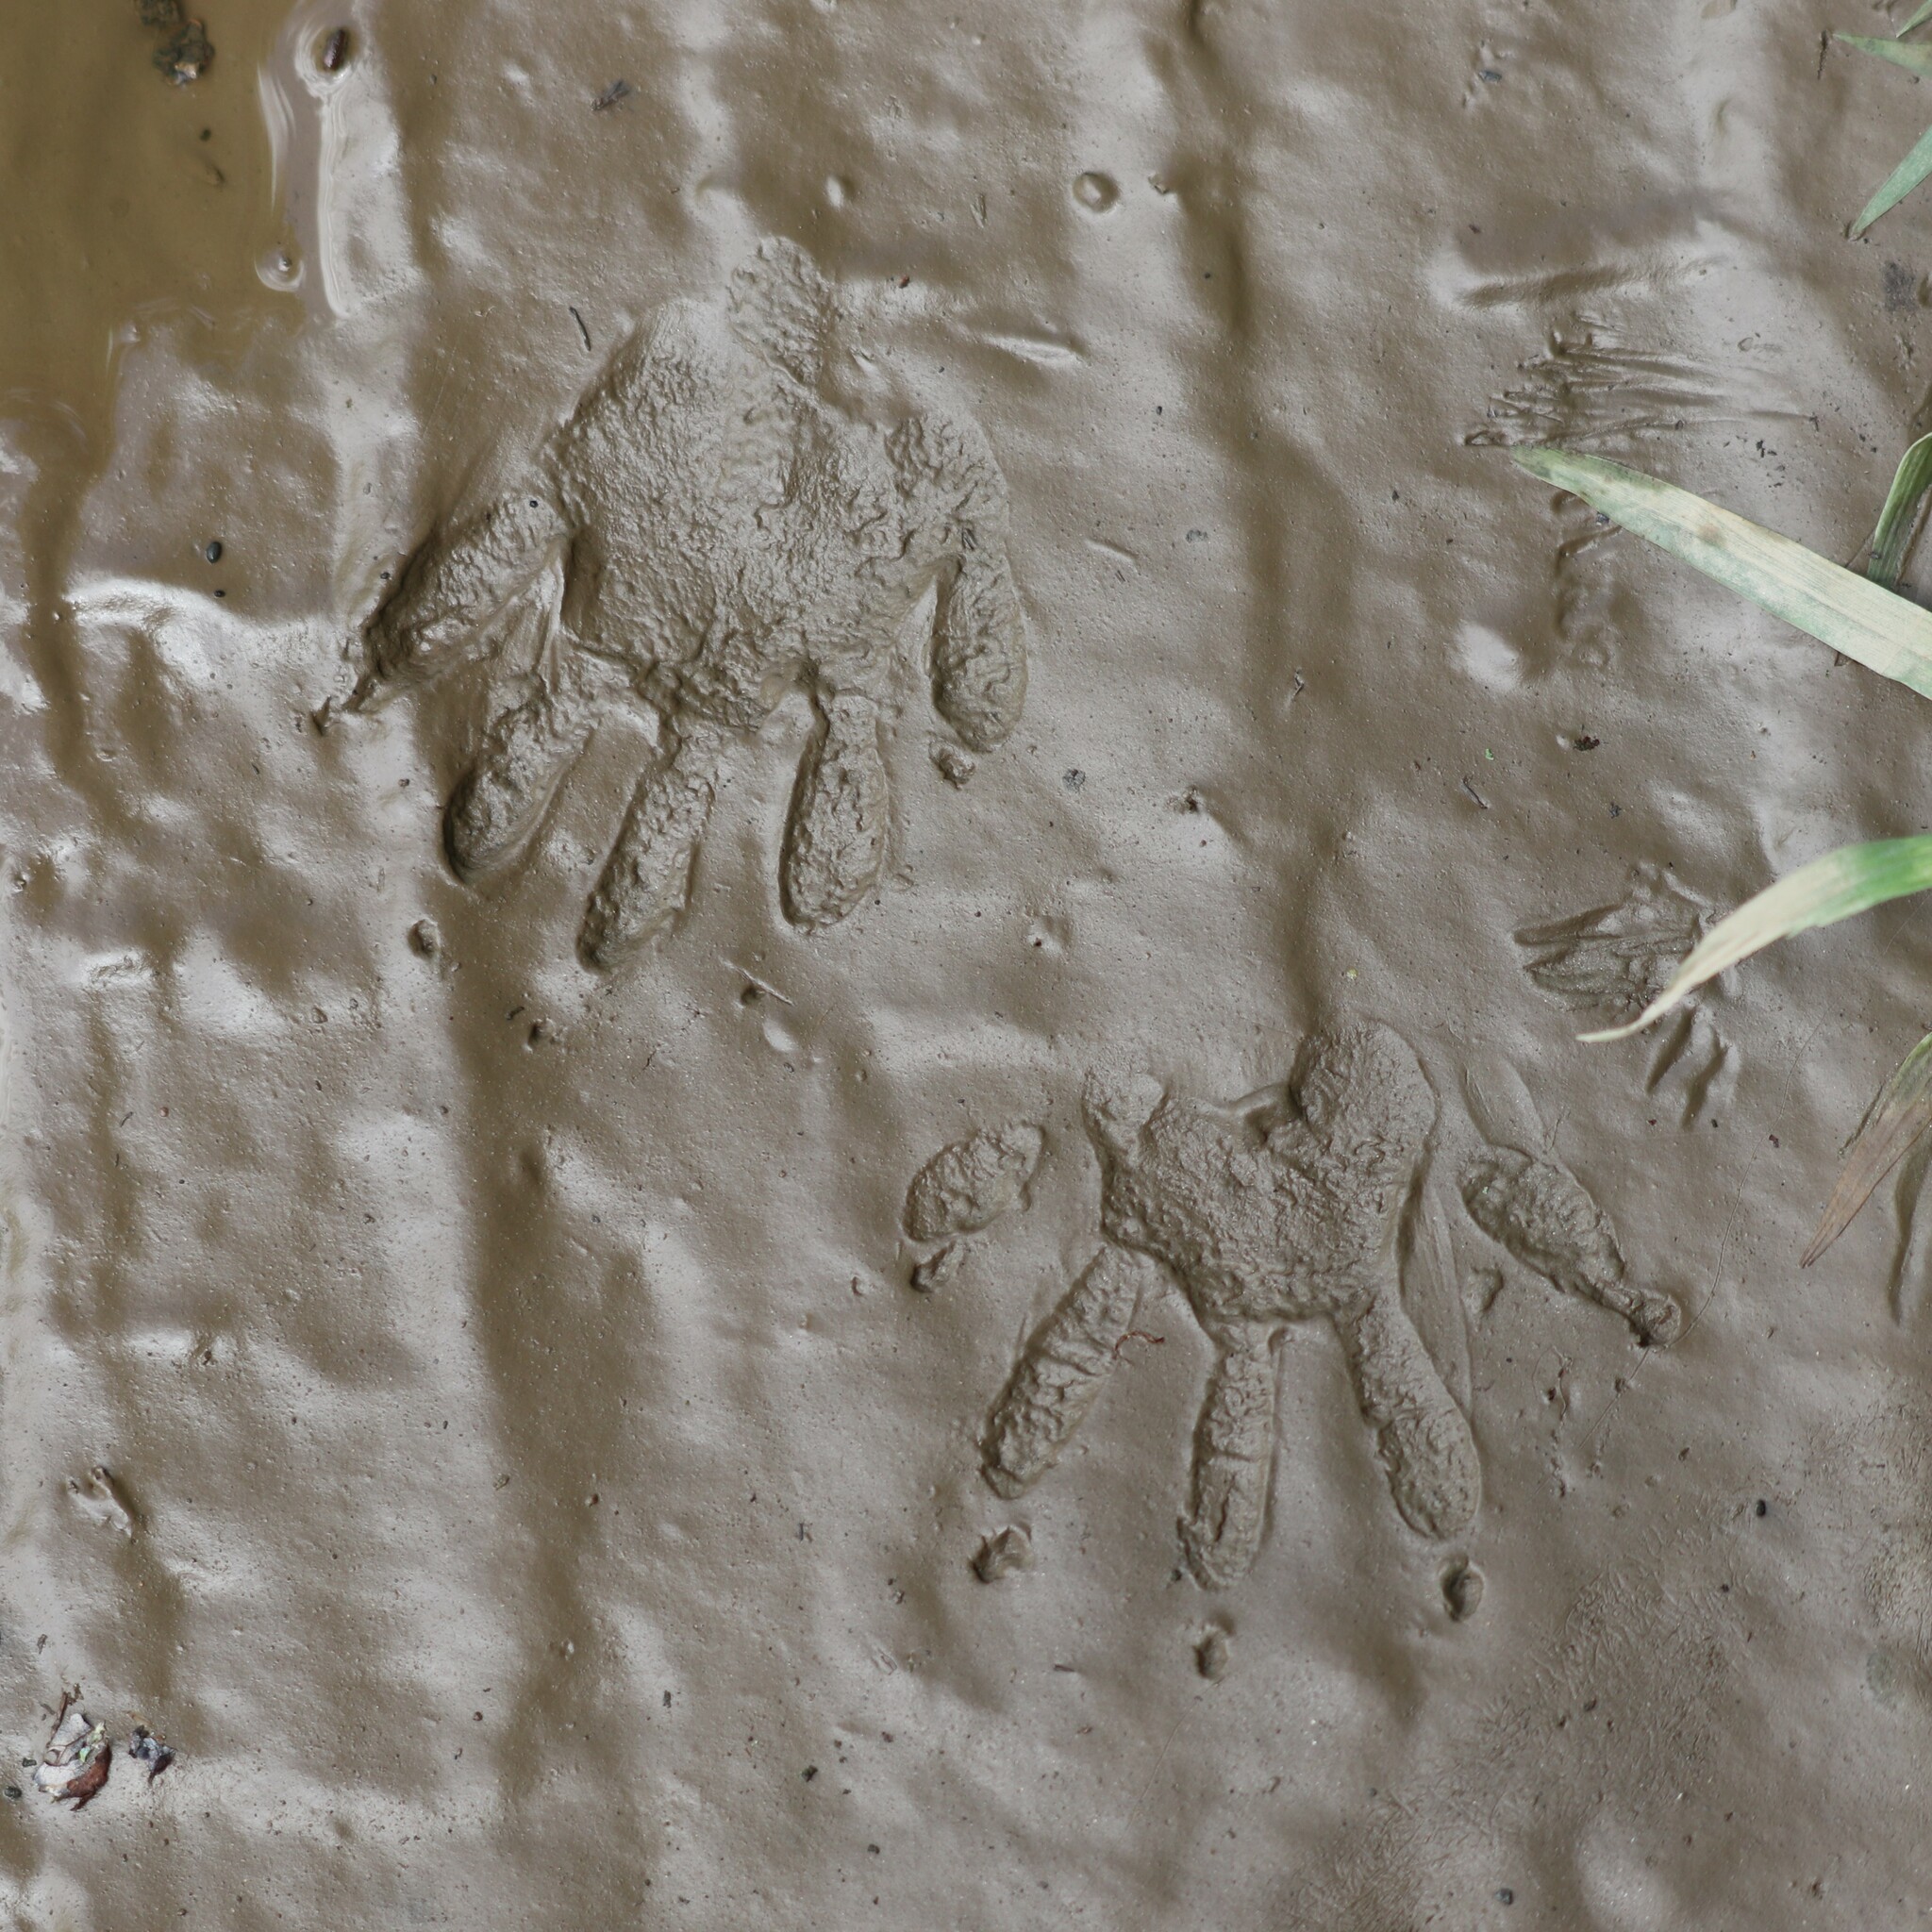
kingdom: Animalia
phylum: Chordata
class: Mammalia
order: Carnivora
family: Procyonidae
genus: Procyon
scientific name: Procyon lotor
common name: Raccoon
